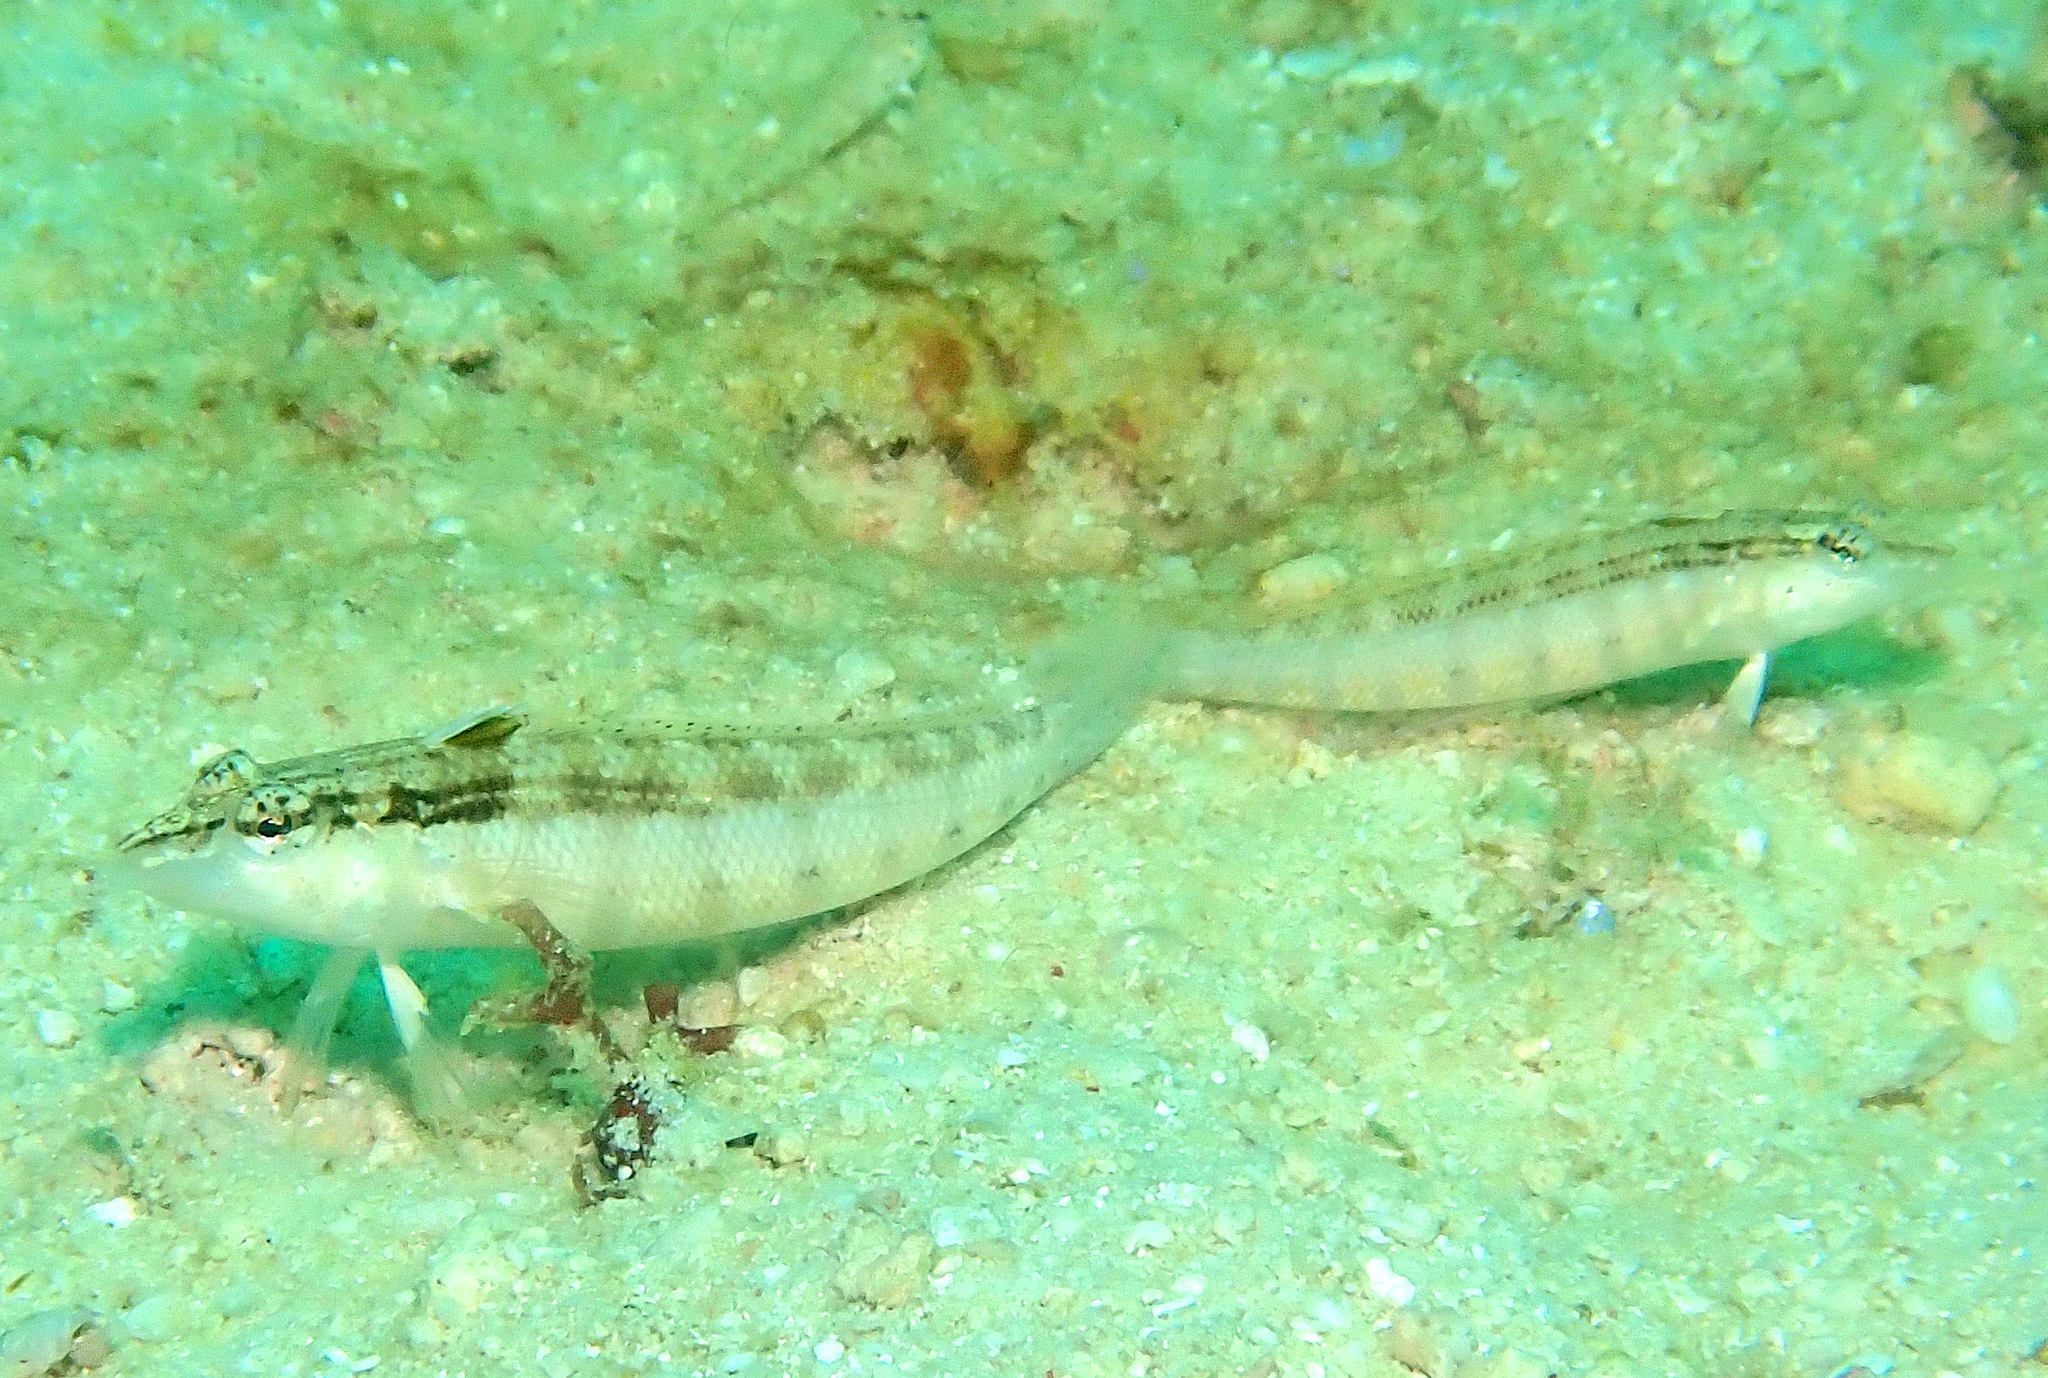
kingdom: Animalia
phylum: Chordata
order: Perciformes
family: Pinguipedidae
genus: Parapercis
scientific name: Parapercis lineopunctata
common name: Nosestripe sandperch
